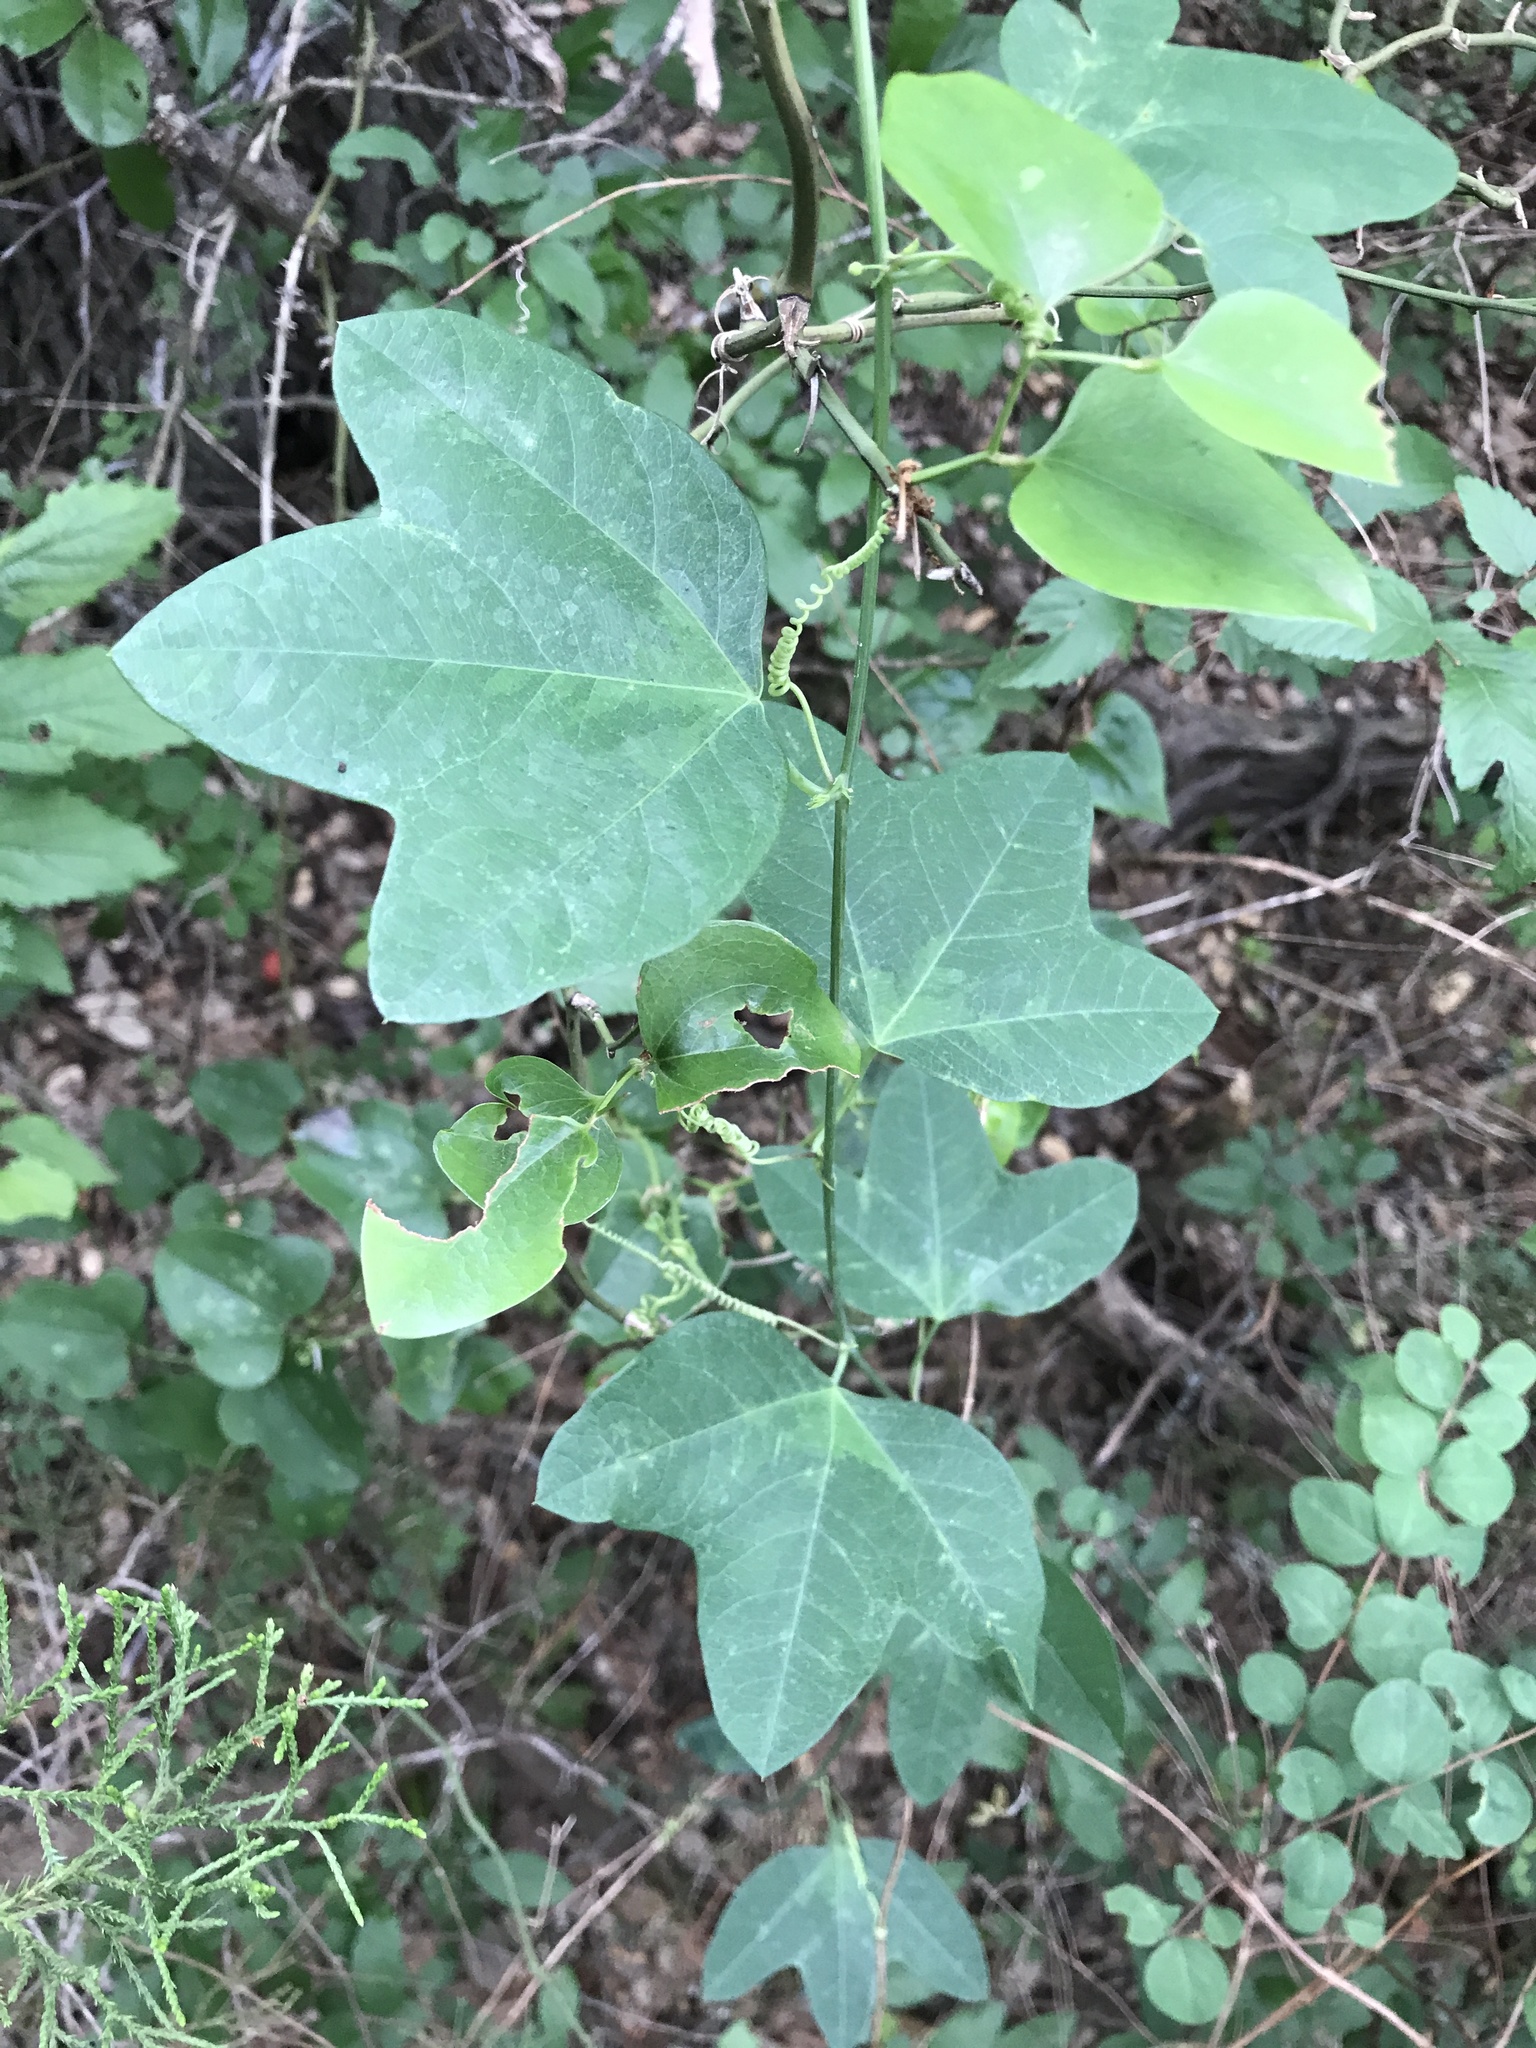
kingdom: Plantae
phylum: Tracheophyta
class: Magnoliopsida
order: Malpighiales
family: Passifloraceae
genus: Passiflora
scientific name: Passiflora lutea
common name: Yellow passionflower
